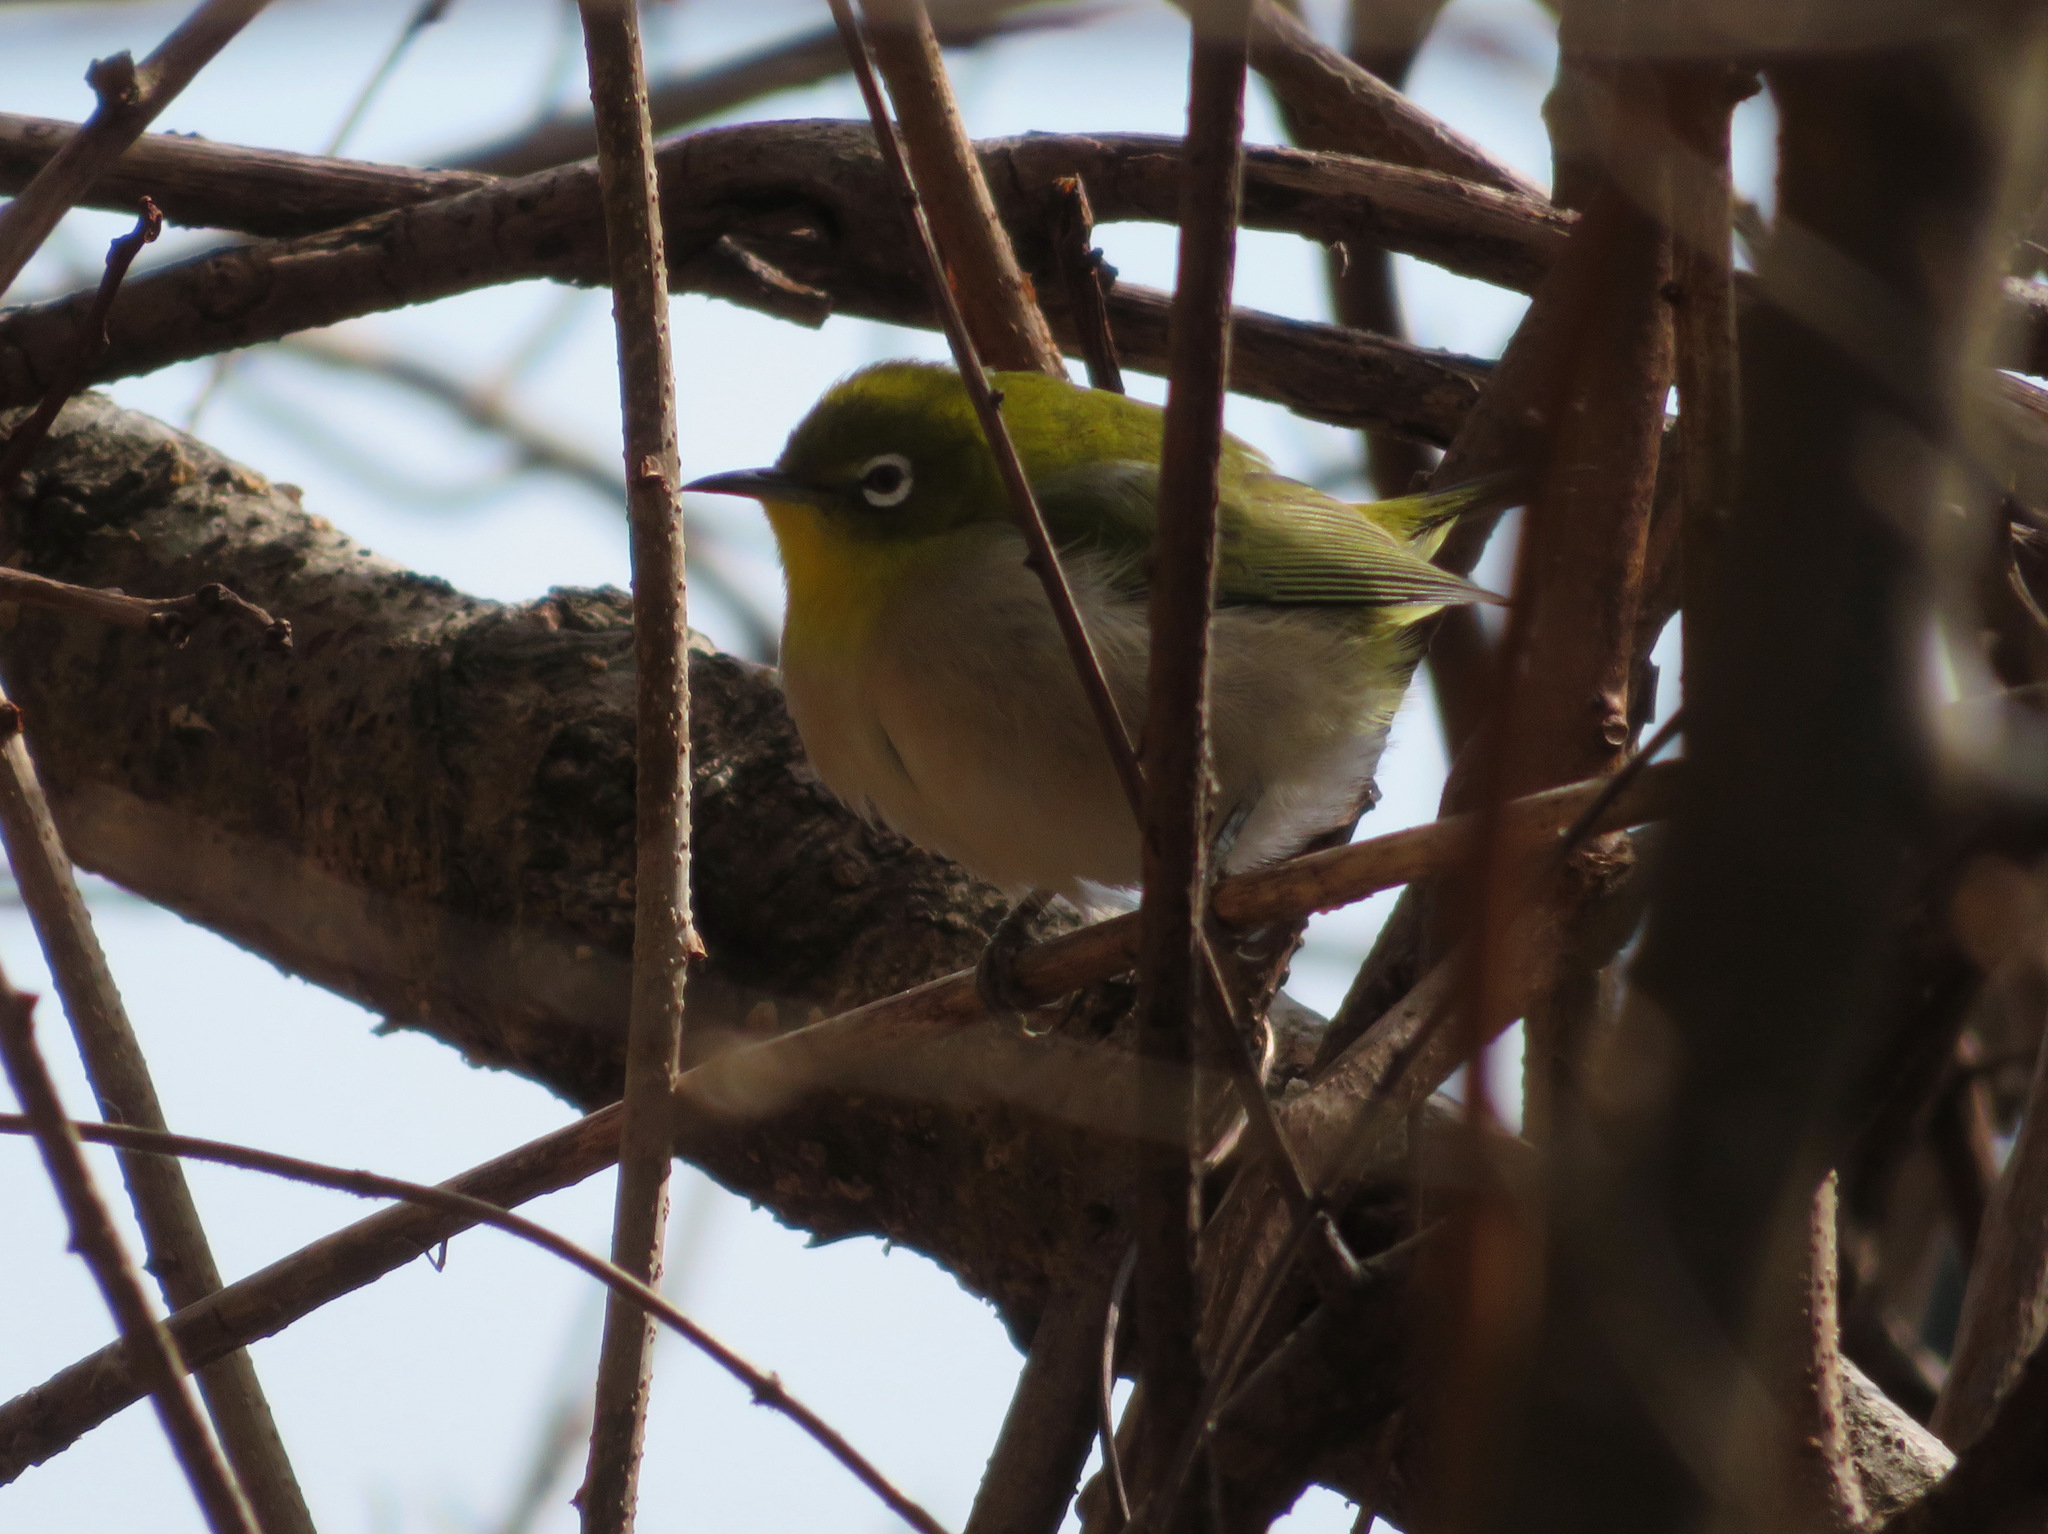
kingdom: Animalia
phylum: Chordata
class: Aves
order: Passeriformes
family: Zosteropidae
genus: Zosterops
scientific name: Zosterops japonicus
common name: Japanese white-eye
